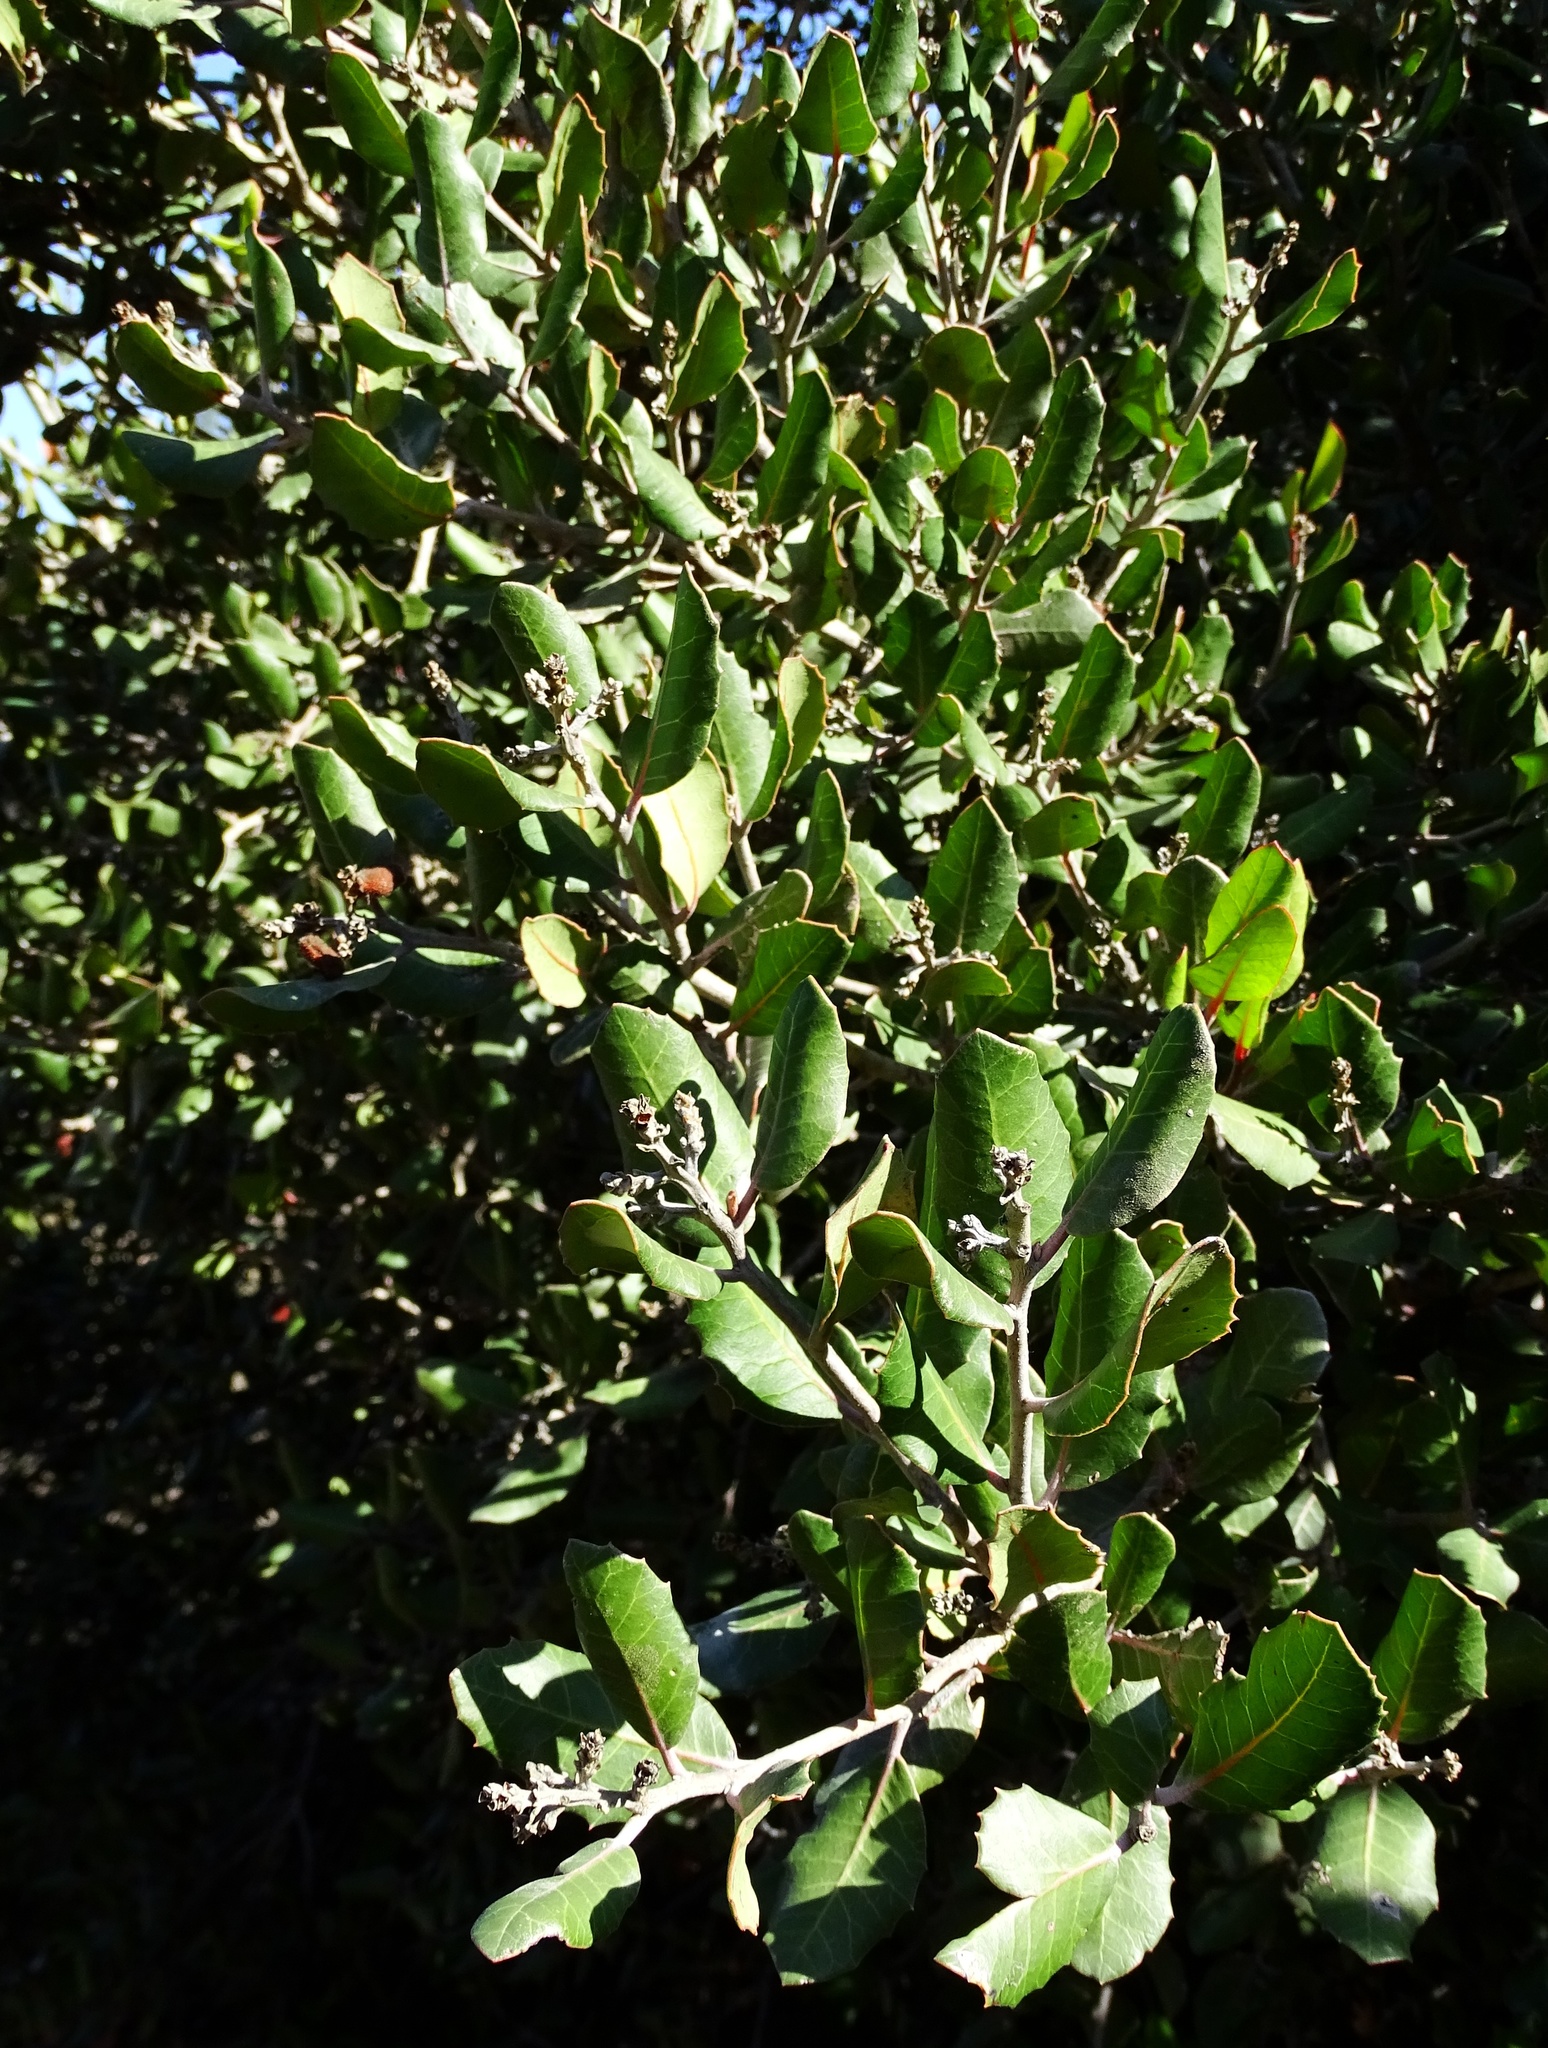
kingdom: Plantae
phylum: Tracheophyta
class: Magnoliopsida
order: Sapindales
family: Anacardiaceae
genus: Rhus
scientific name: Rhus integrifolia
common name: Lemonade sumac
